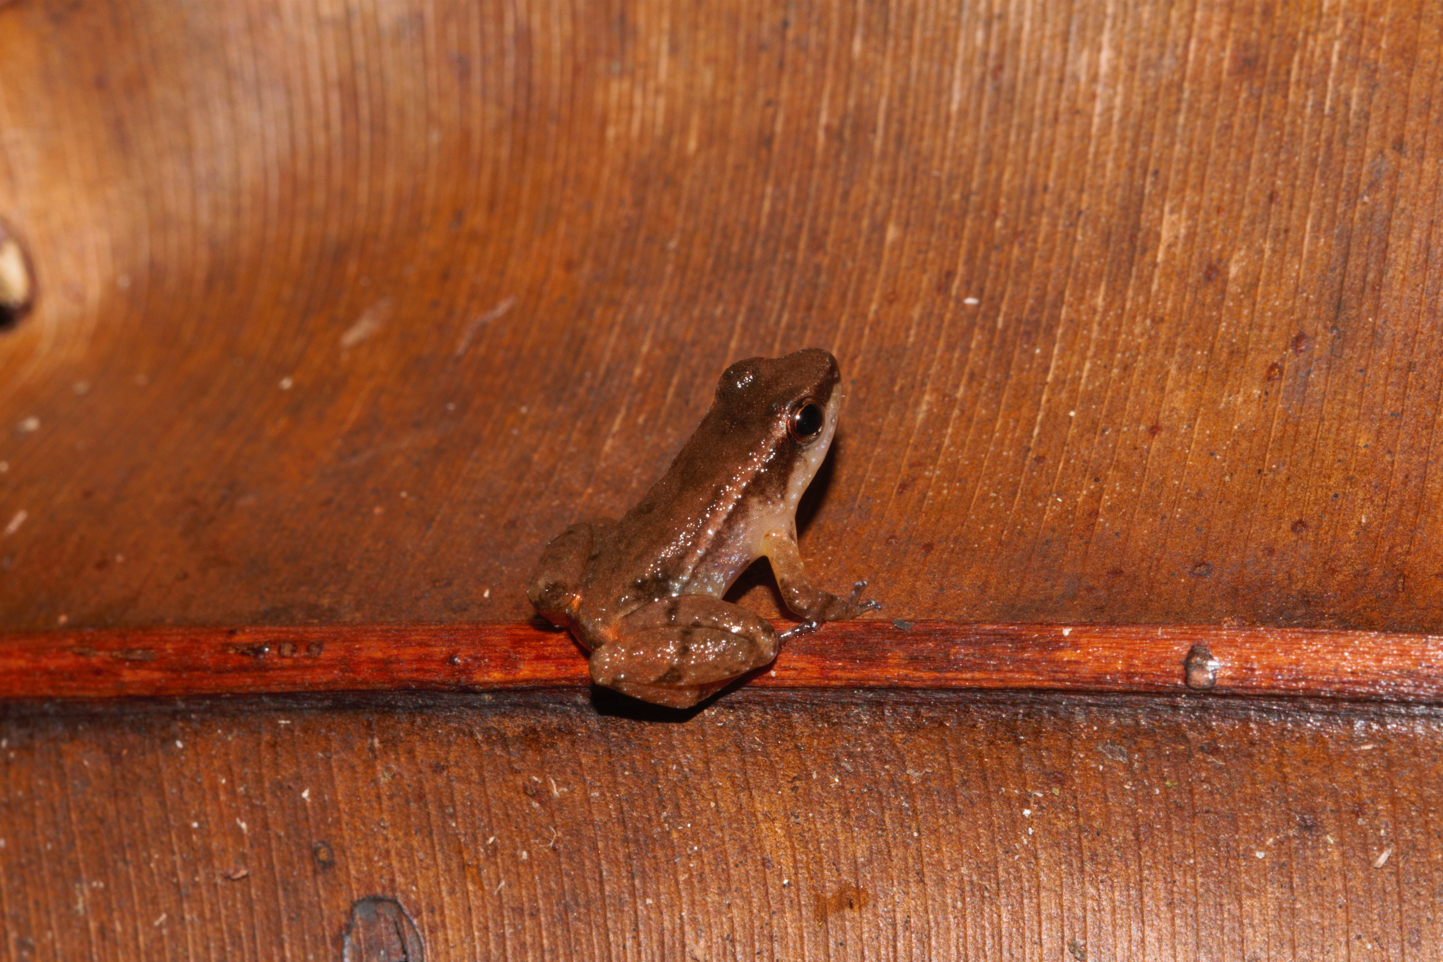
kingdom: Animalia
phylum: Chordata
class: Amphibia
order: Anura
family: Aromobatidae
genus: Anomaloglossus
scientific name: Anomaloglossus baeobatrachus
